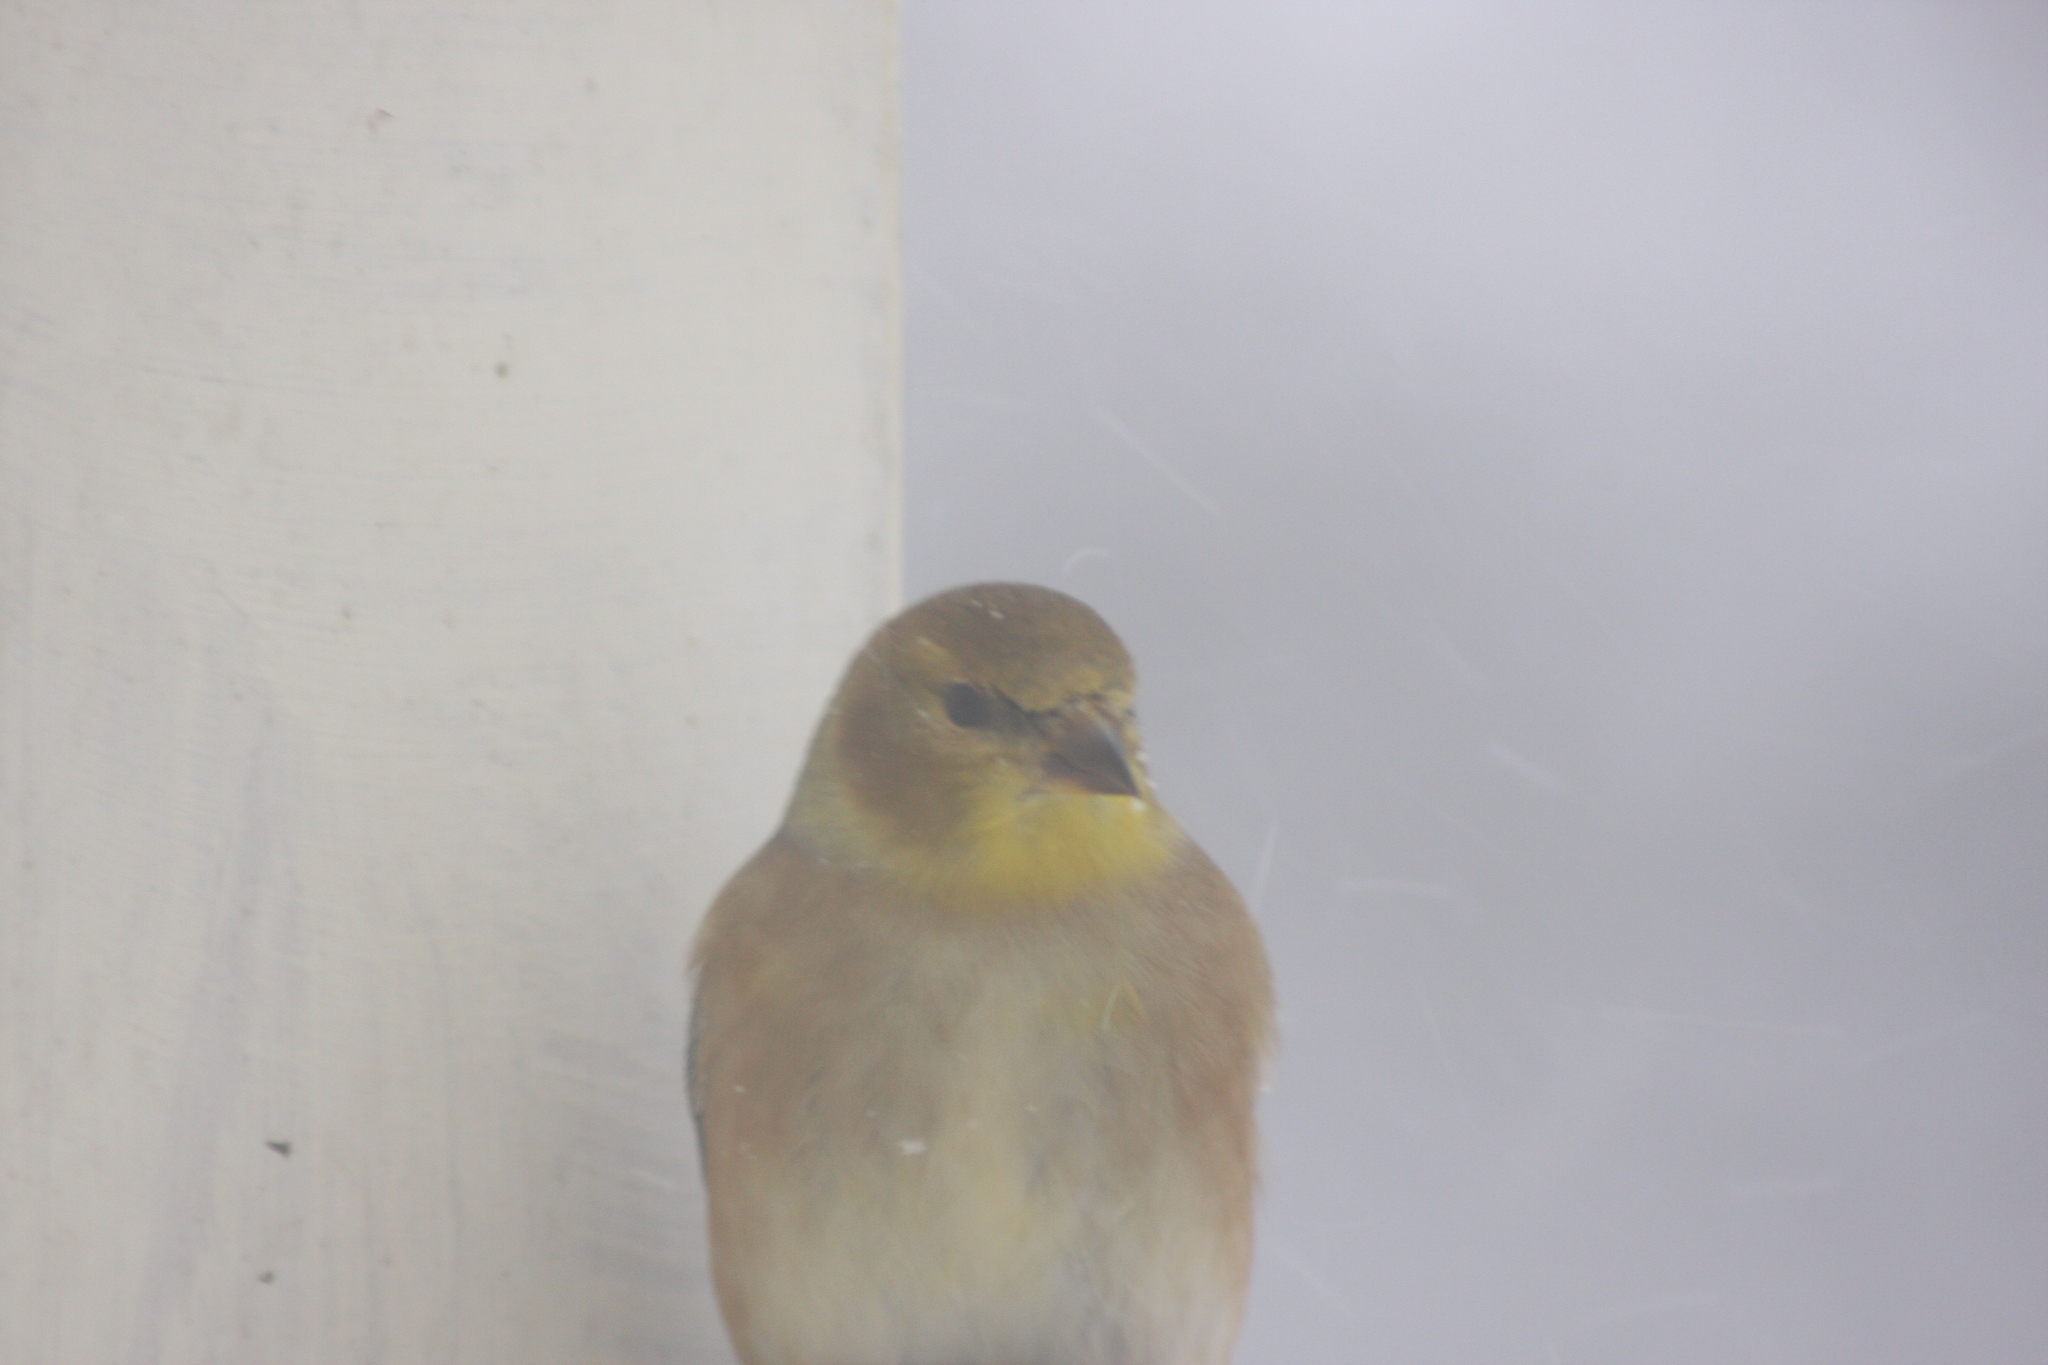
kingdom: Animalia
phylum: Chordata
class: Aves
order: Passeriformes
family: Fringillidae
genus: Spinus
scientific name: Spinus tristis
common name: American goldfinch
